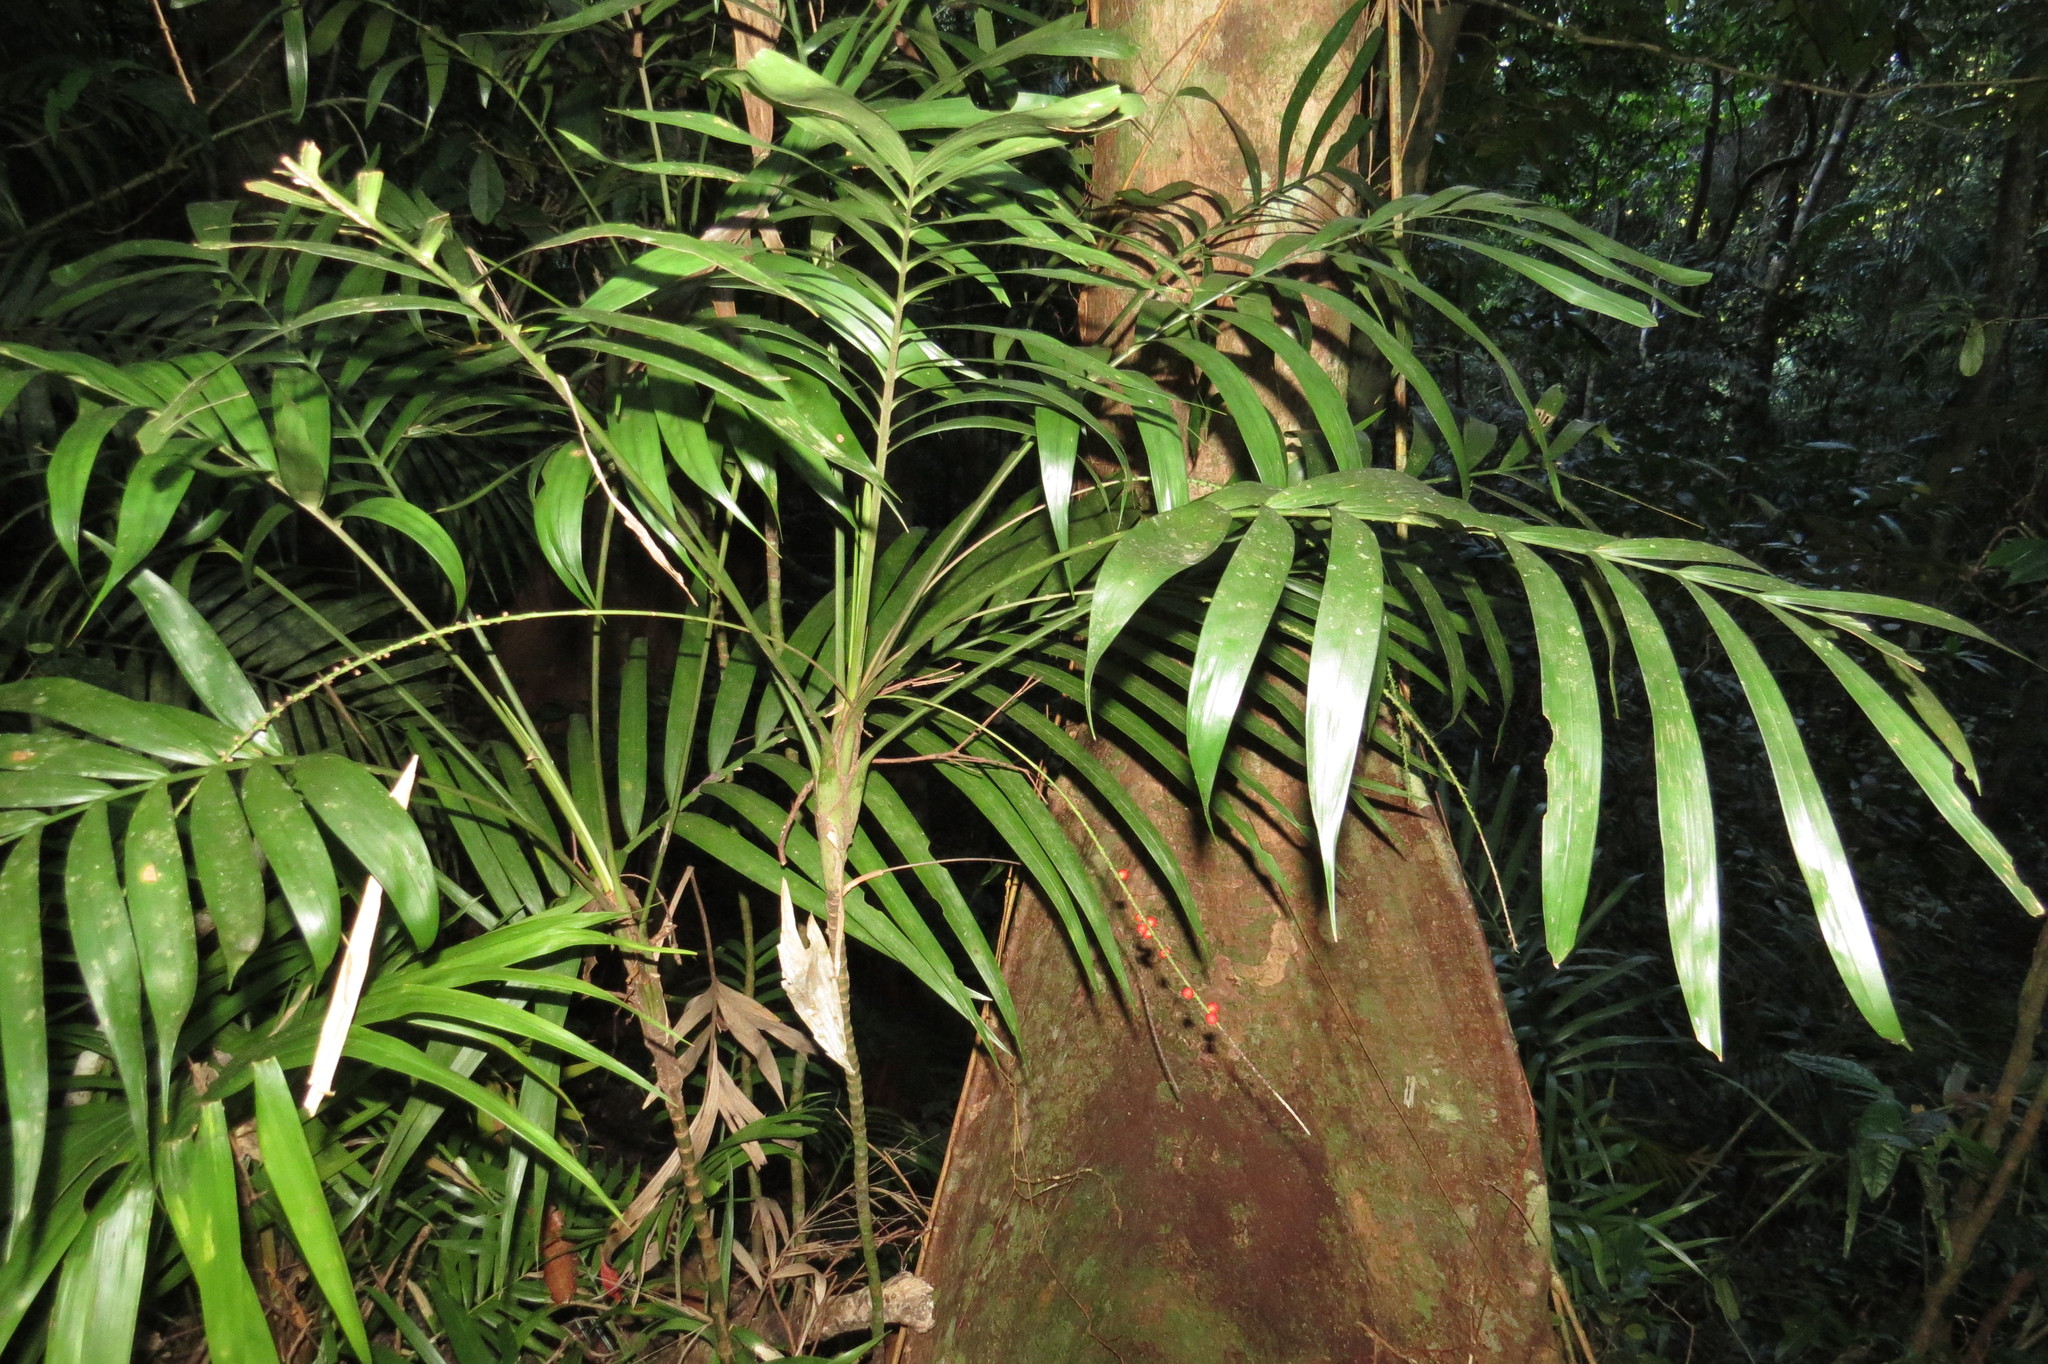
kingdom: Plantae
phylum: Tracheophyta
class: Liliopsida
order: Arecales
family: Arecaceae
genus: Linospadix
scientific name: Linospadix microcaryus
